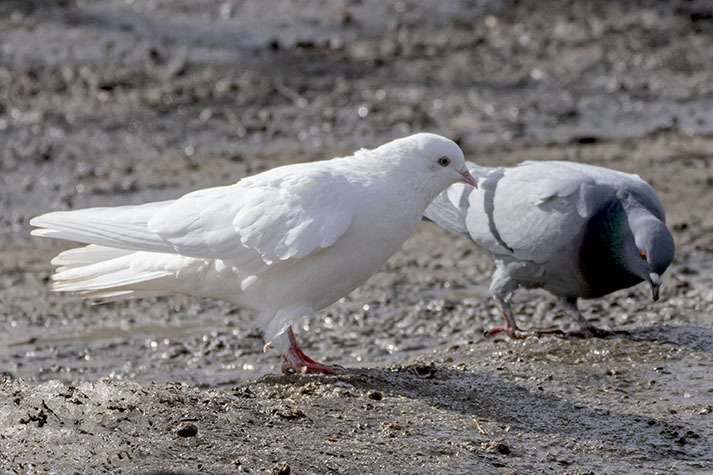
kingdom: Animalia
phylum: Chordata
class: Aves
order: Columbiformes
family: Columbidae
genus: Columba
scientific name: Columba livia
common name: Rock pigeon
